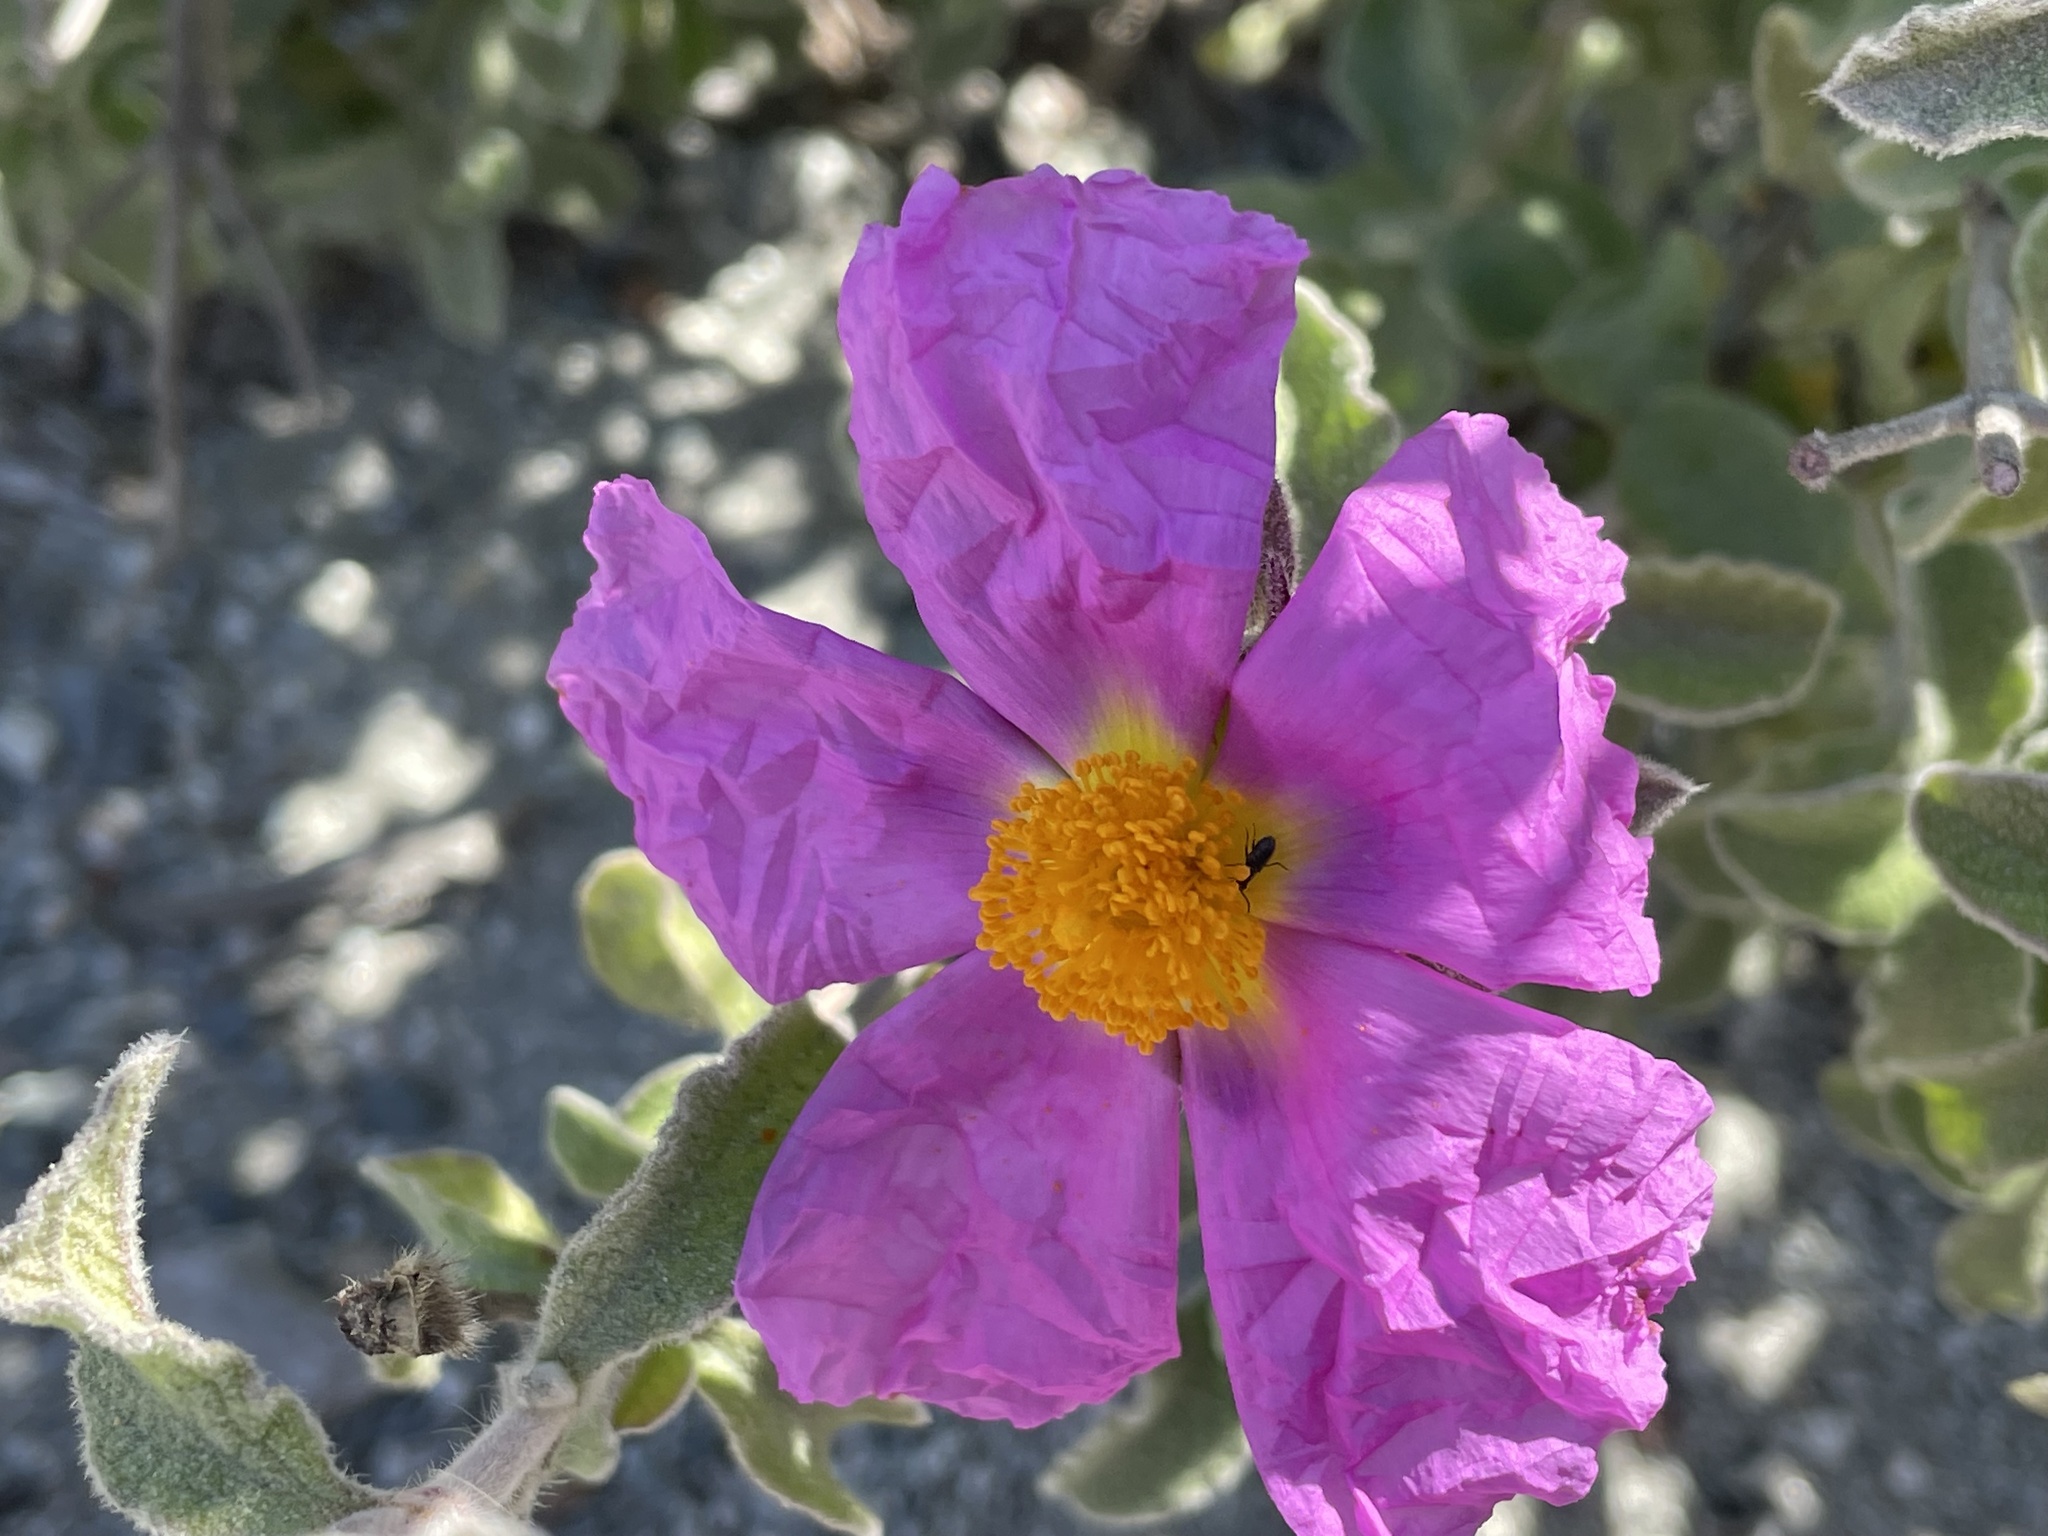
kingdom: Plantae
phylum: Tracheophyta
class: Magnoliopsida
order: Malvales
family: Cistaceae
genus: Cistus
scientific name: Cistus creticus
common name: Cretan rockrose
